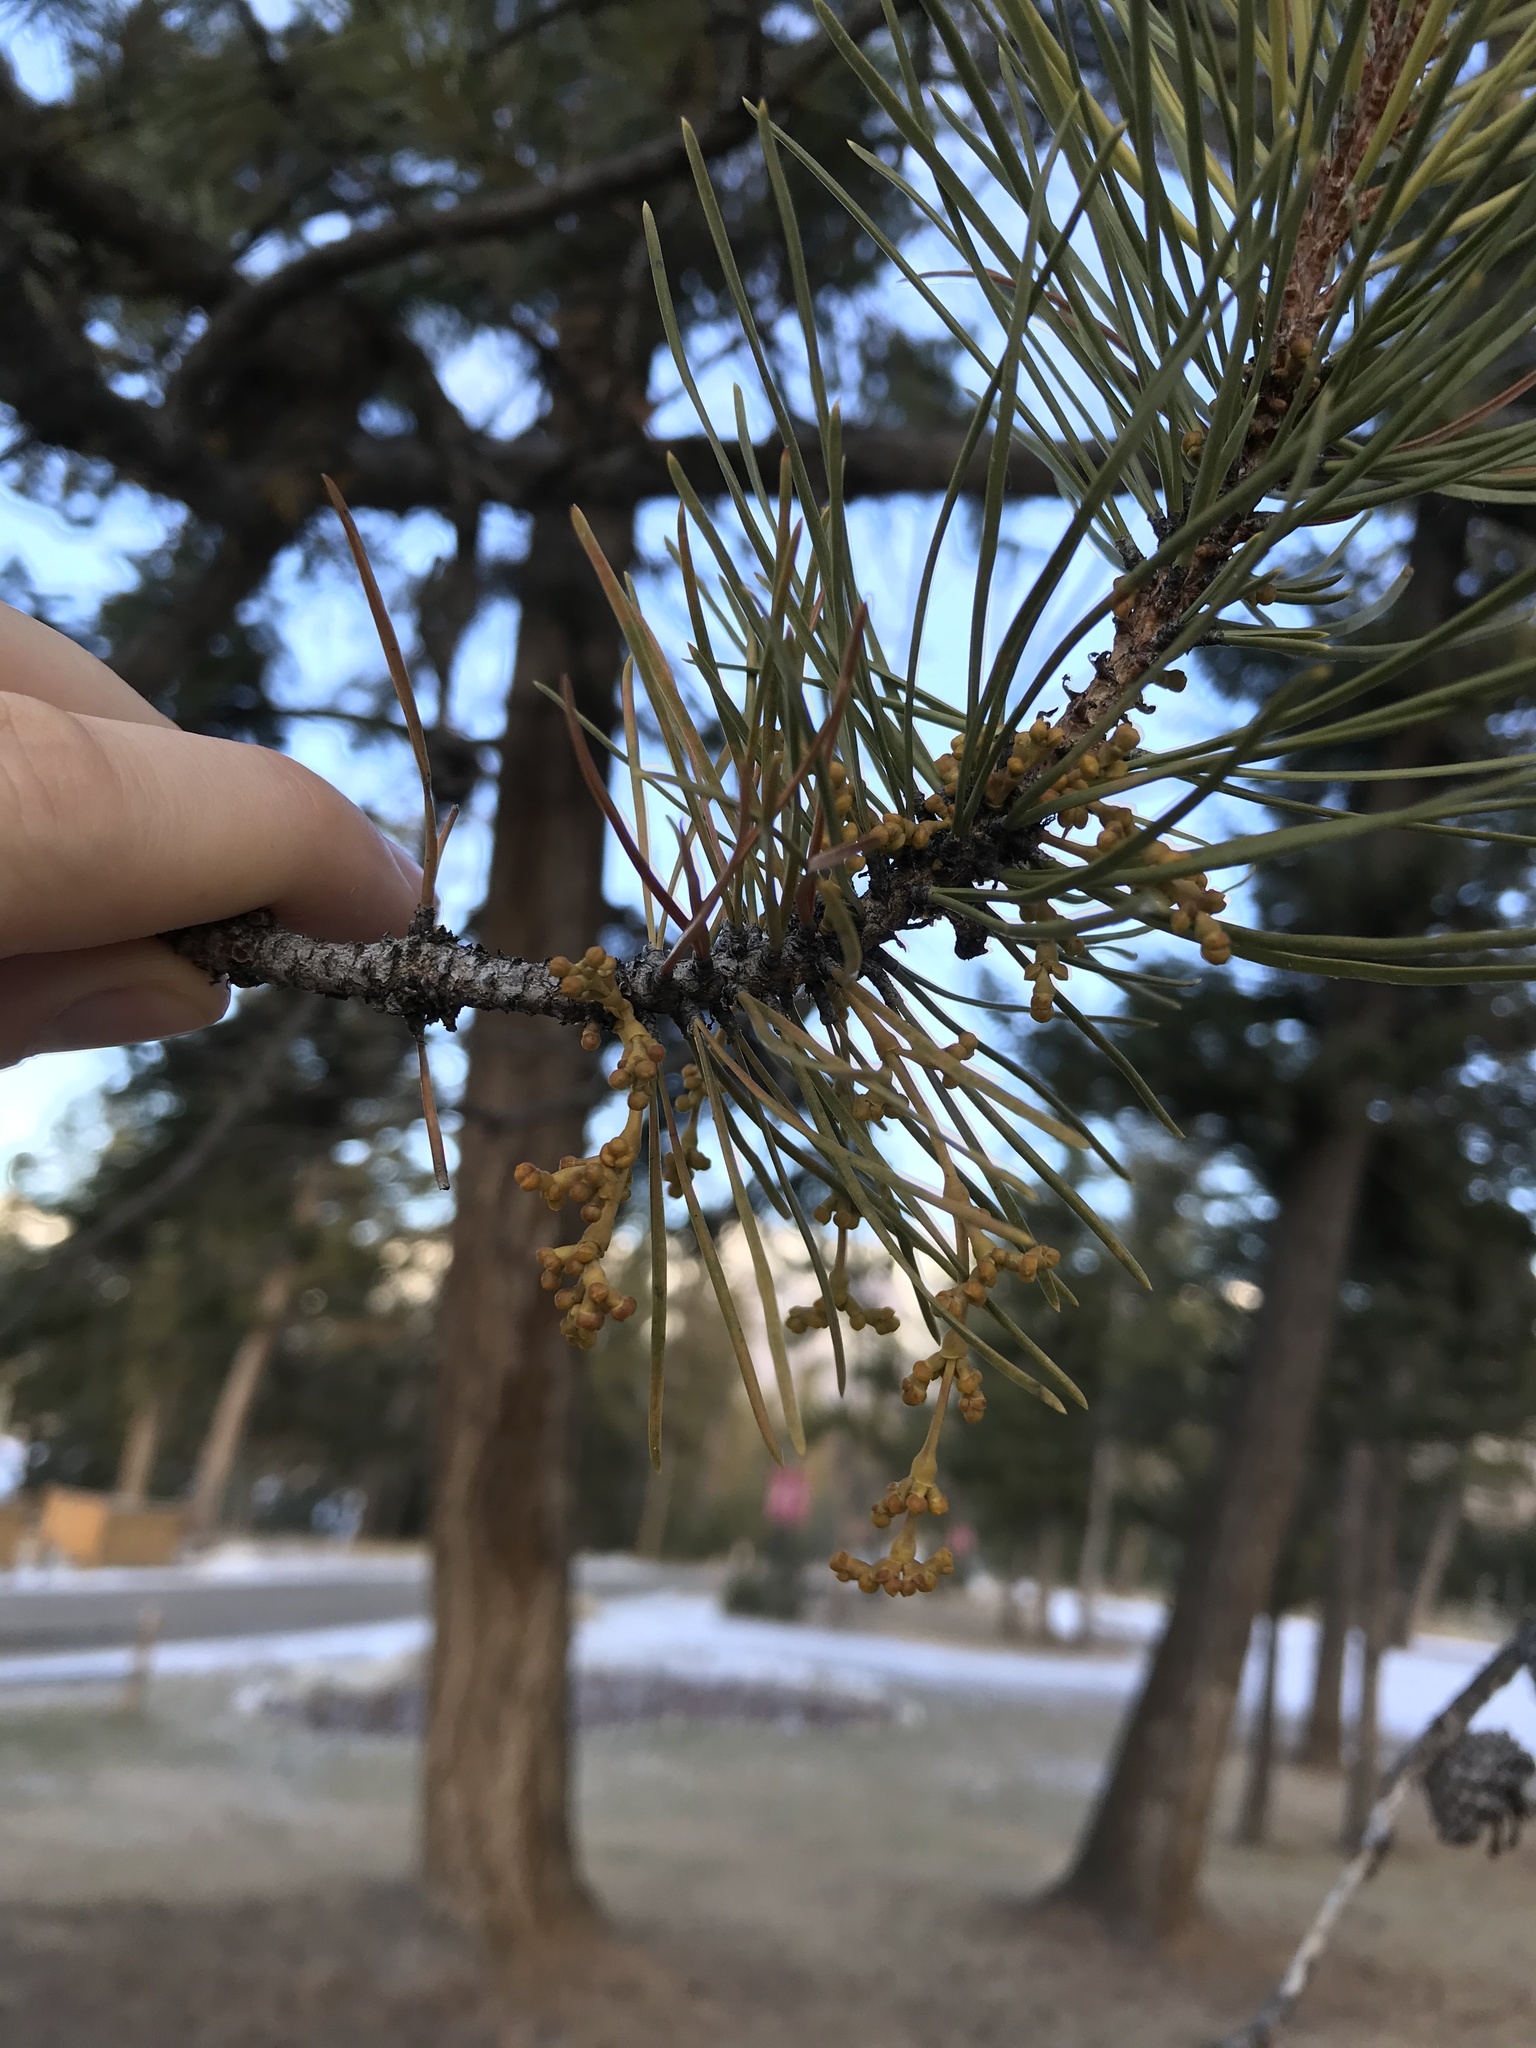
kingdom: Plantae
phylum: Tracheophyta
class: Magnoliopsida
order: Santalales
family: Viscaceae
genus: Arceuthobium
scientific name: Arceuthobium americanum
